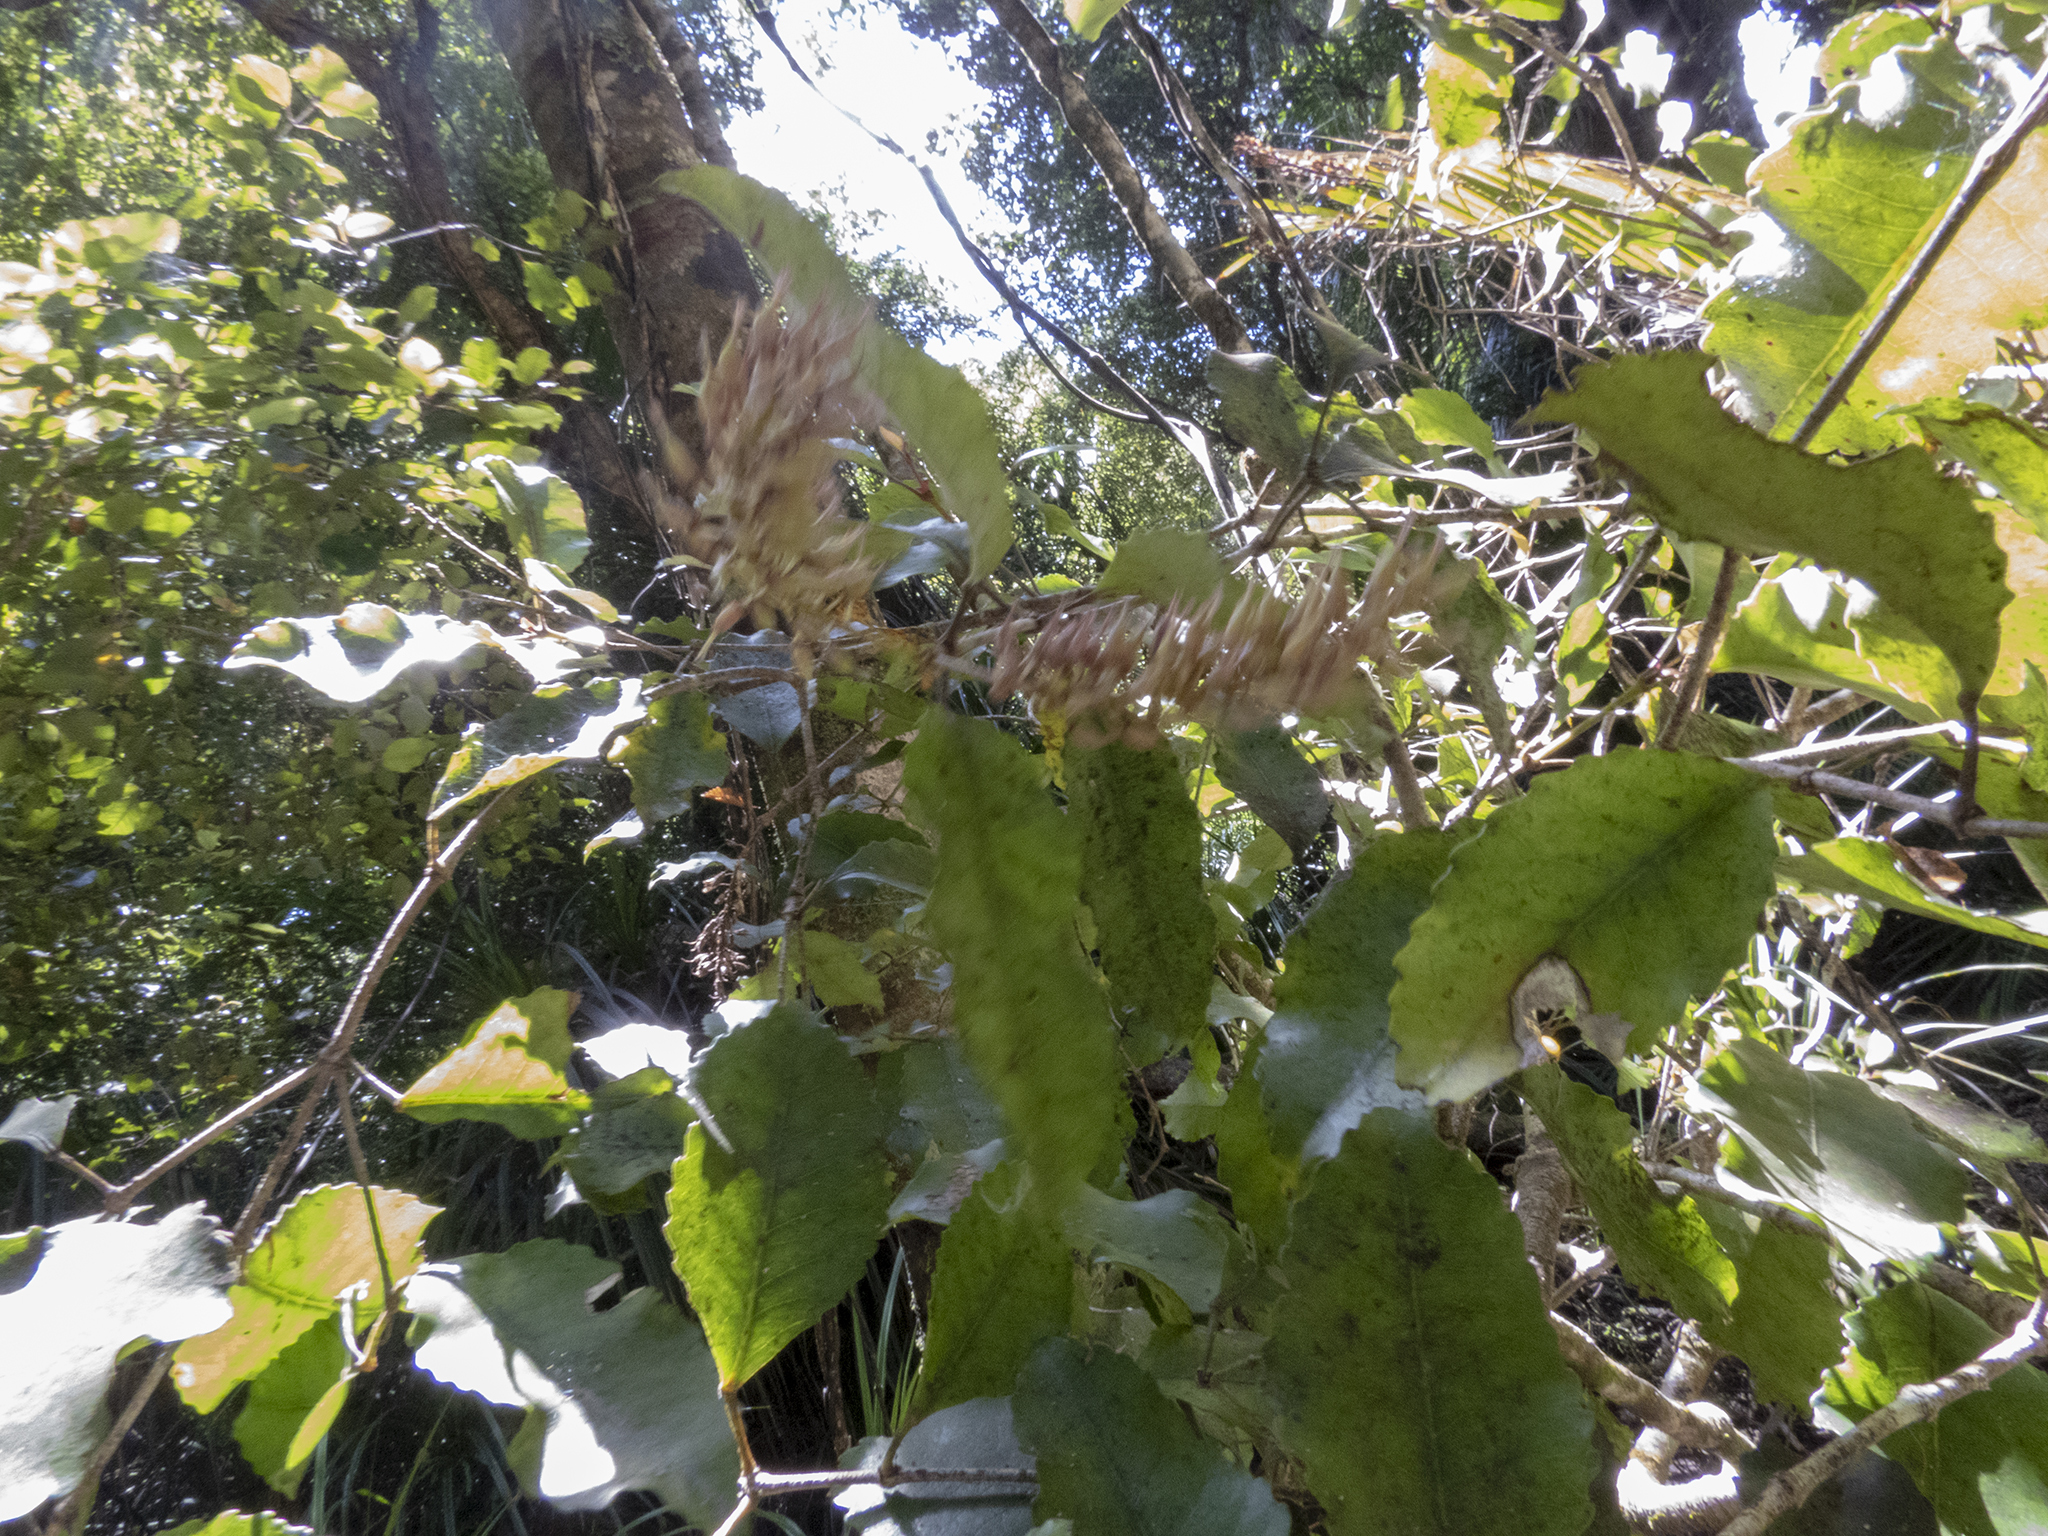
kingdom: Plantae
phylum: Tracheophyta
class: Magnoliopsida
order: Oxalidales
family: Cunoniaceae
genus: Pterophylla
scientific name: Pterophylla racemosa
